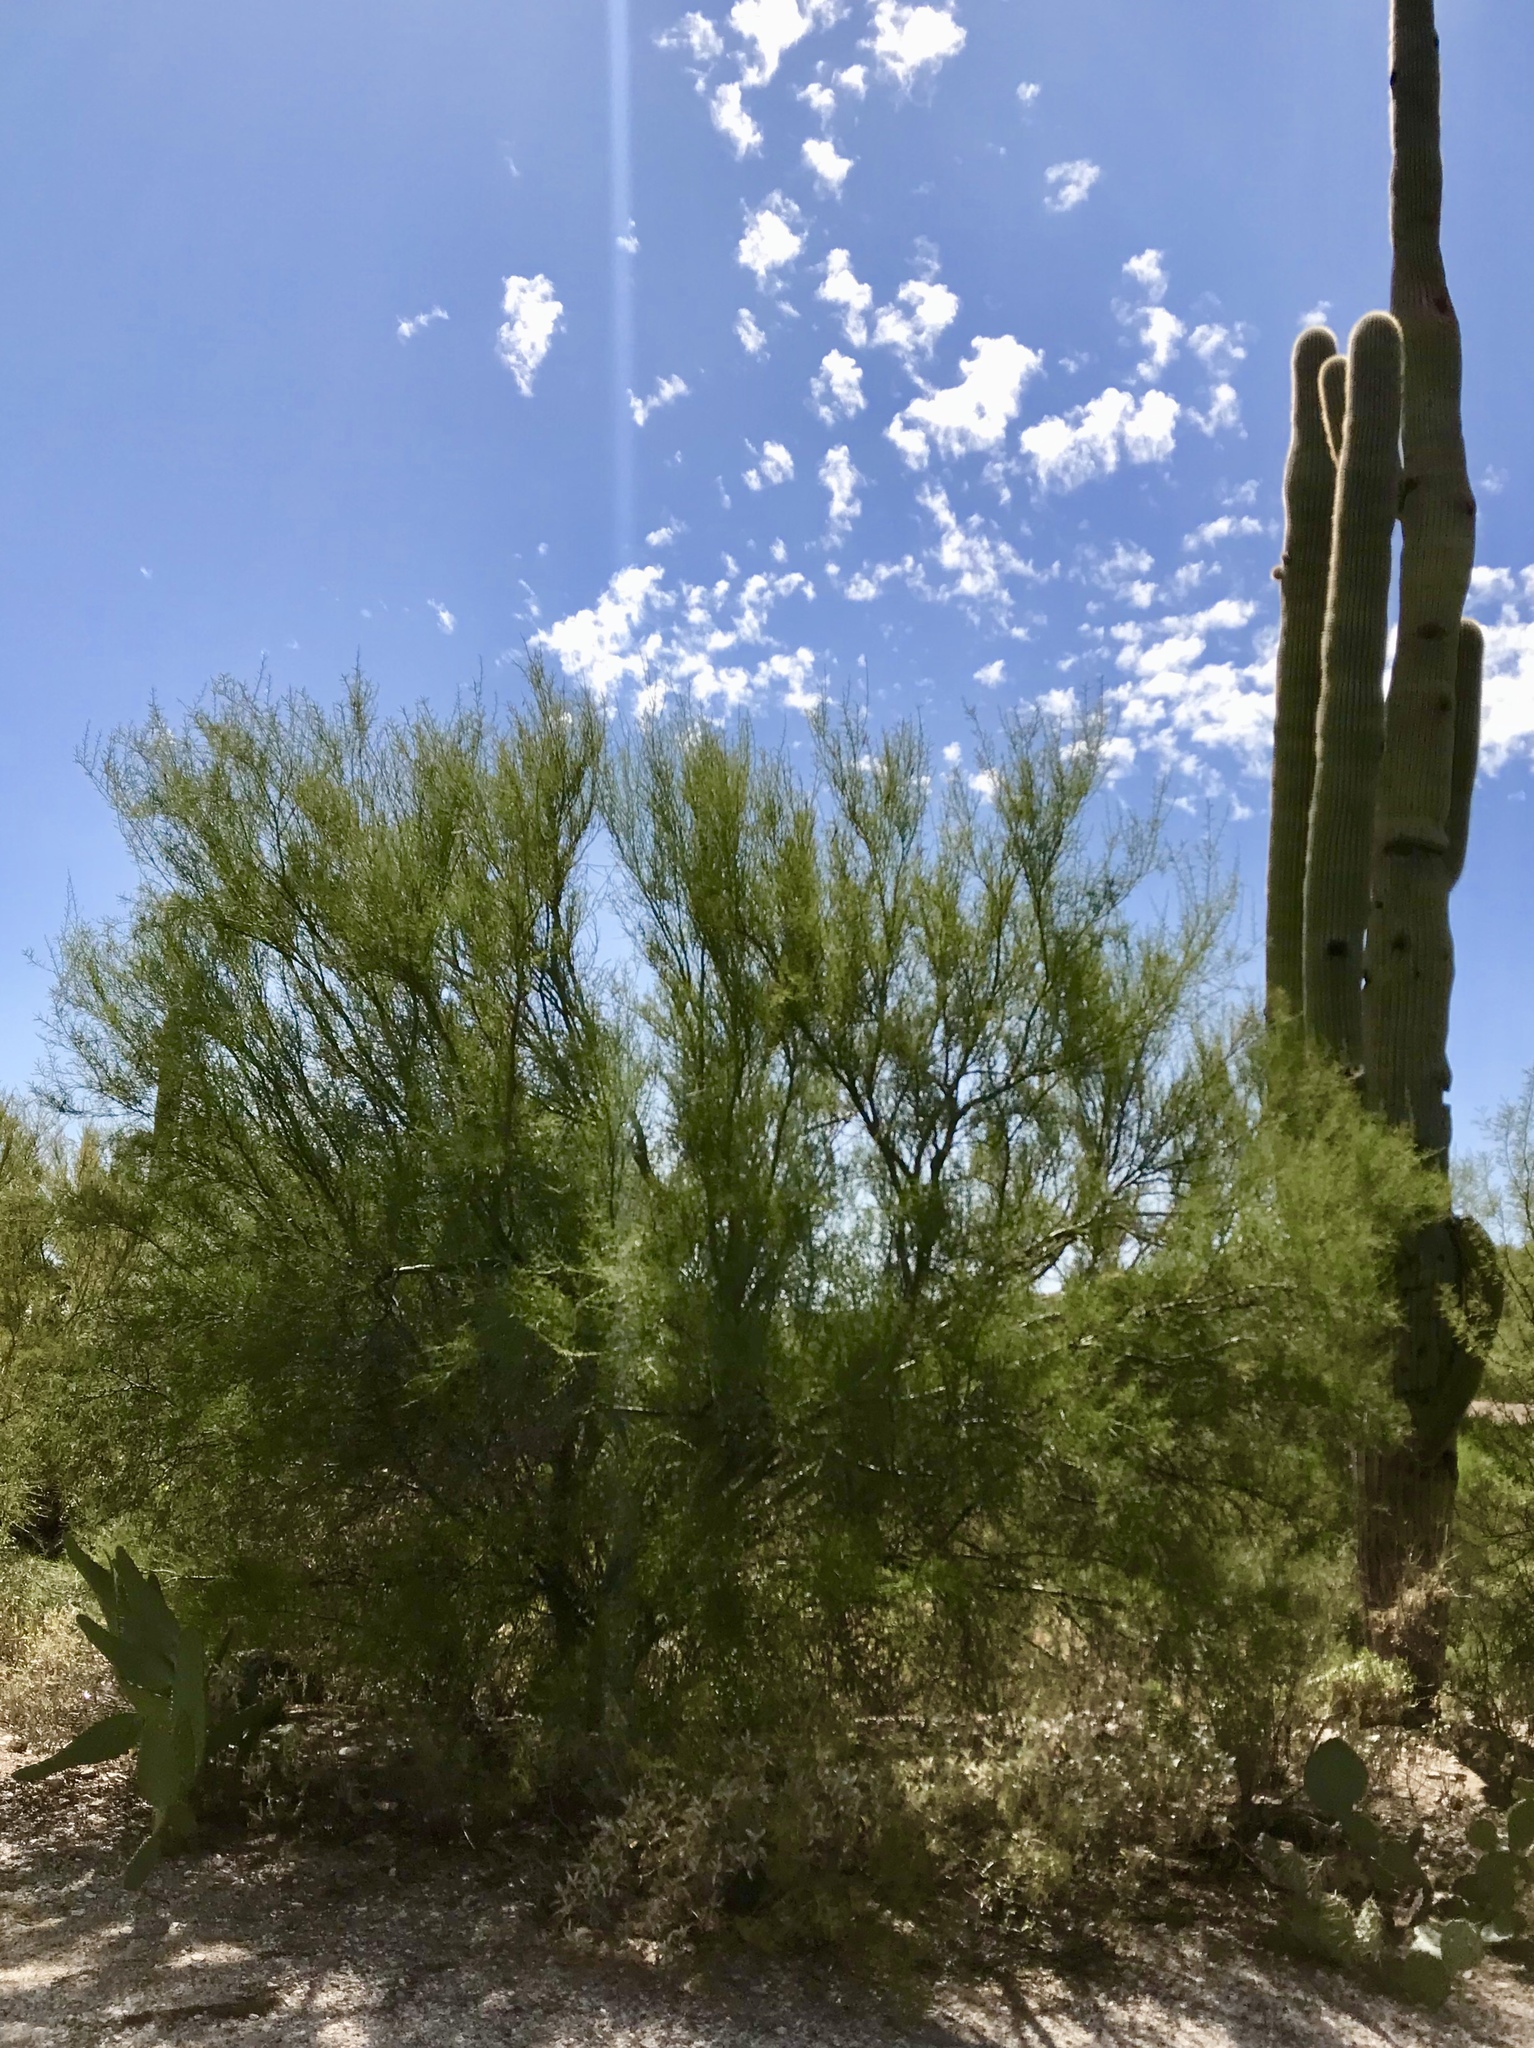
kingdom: Plantae
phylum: Tracheophyta
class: Magnoliopsida
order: Fabales
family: Fabaceae
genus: Parkinsonia
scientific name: Parkinsonia microphylla
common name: Yellow paloverde
